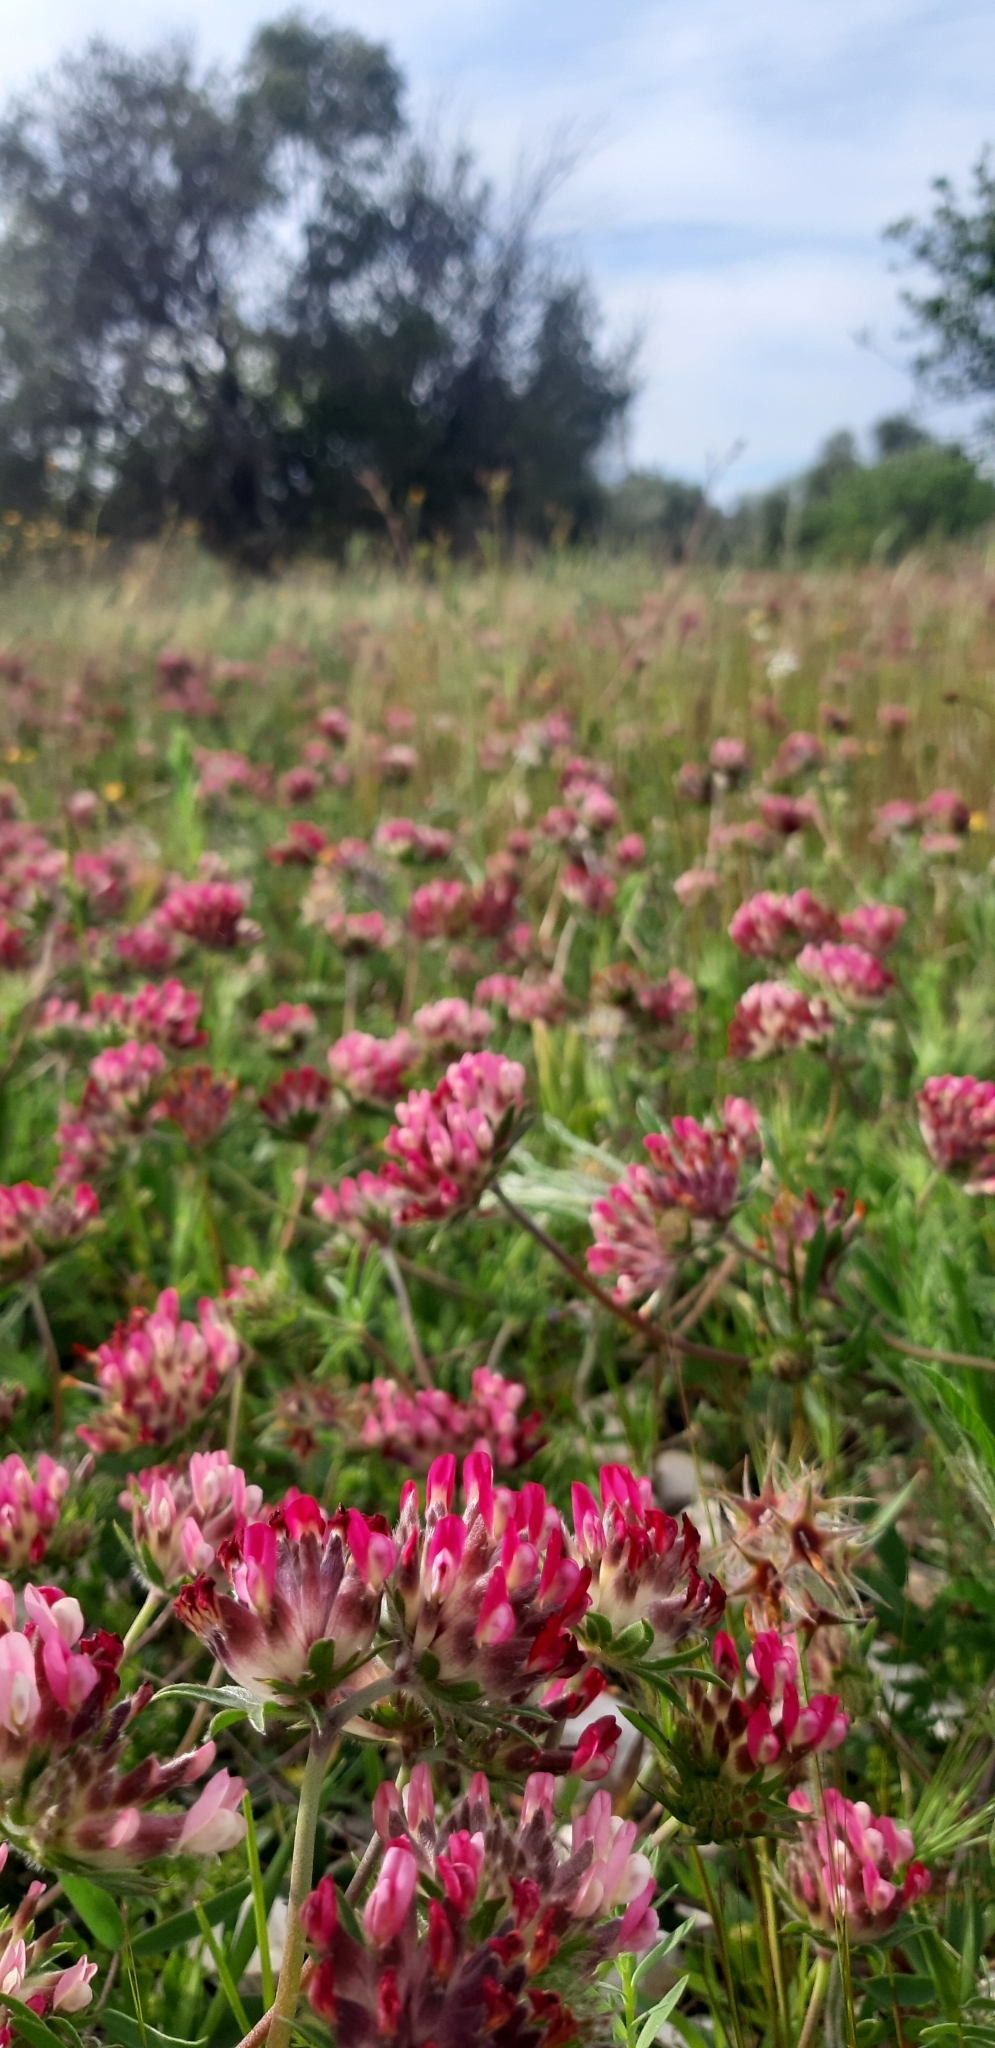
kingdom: Plantae
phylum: Tracheophyta
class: Magnoliopsida
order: Fabales
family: Fabaceae
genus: Anthyllis
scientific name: Anthyllis vulneraria
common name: Kidney vetch
